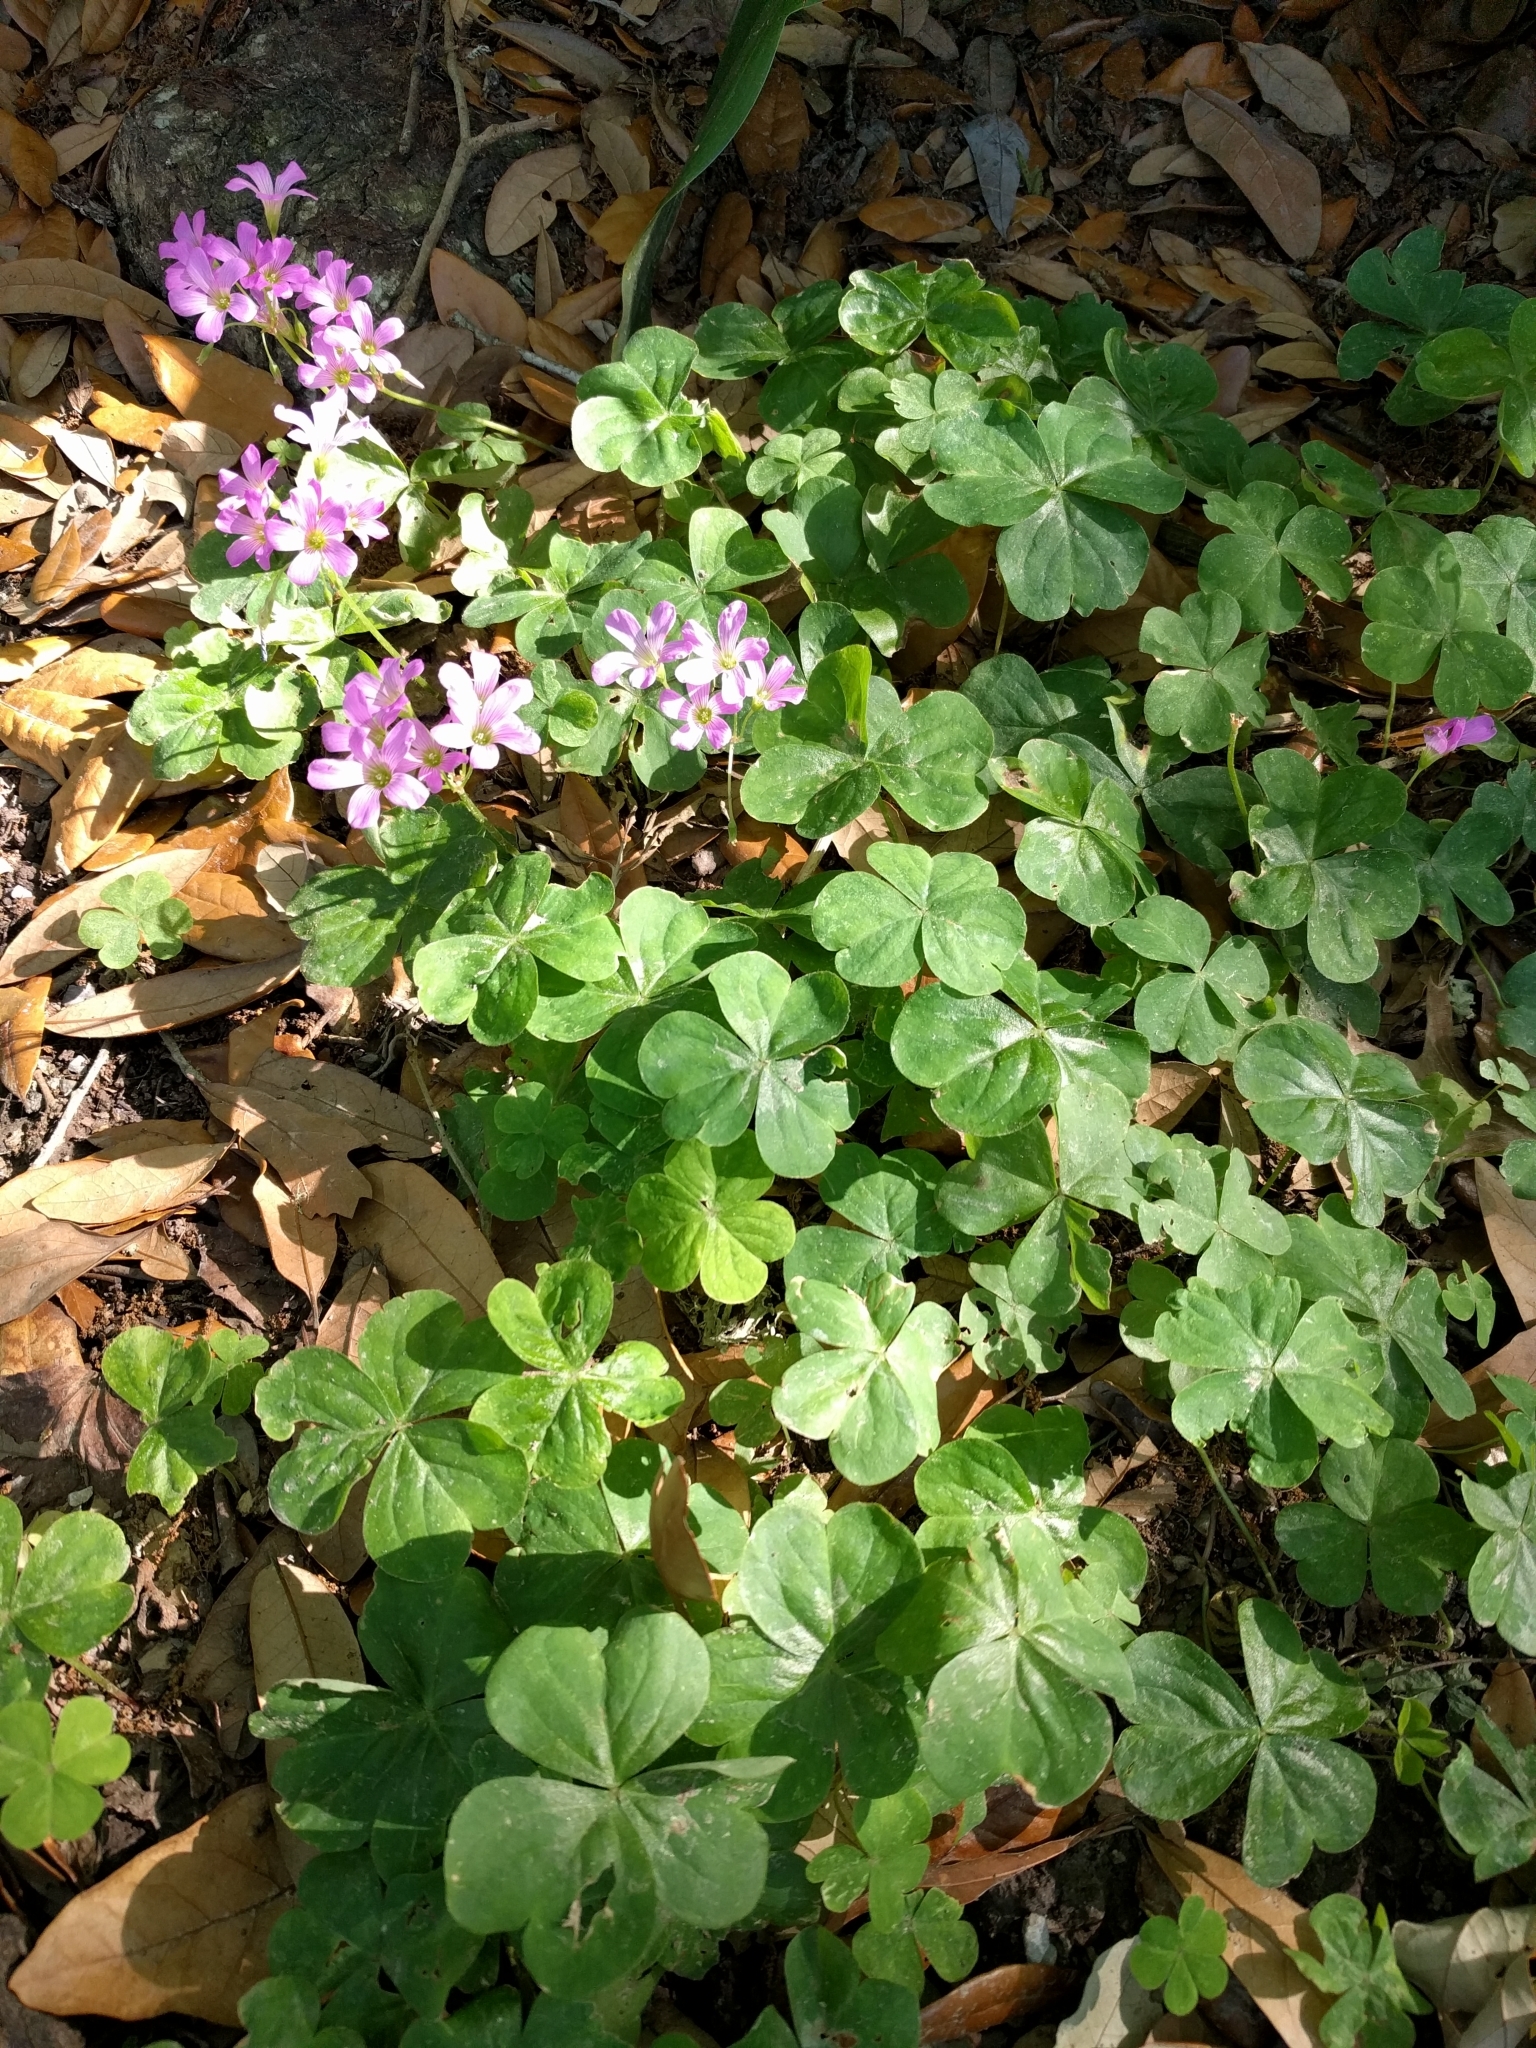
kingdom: Plantae
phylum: Tracheophyta
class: Magnoliopsida
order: Oxalidales
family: Oxalidaceae
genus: Oxalis
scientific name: Oxalis debilis
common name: Large-flowered pink-sorrel
